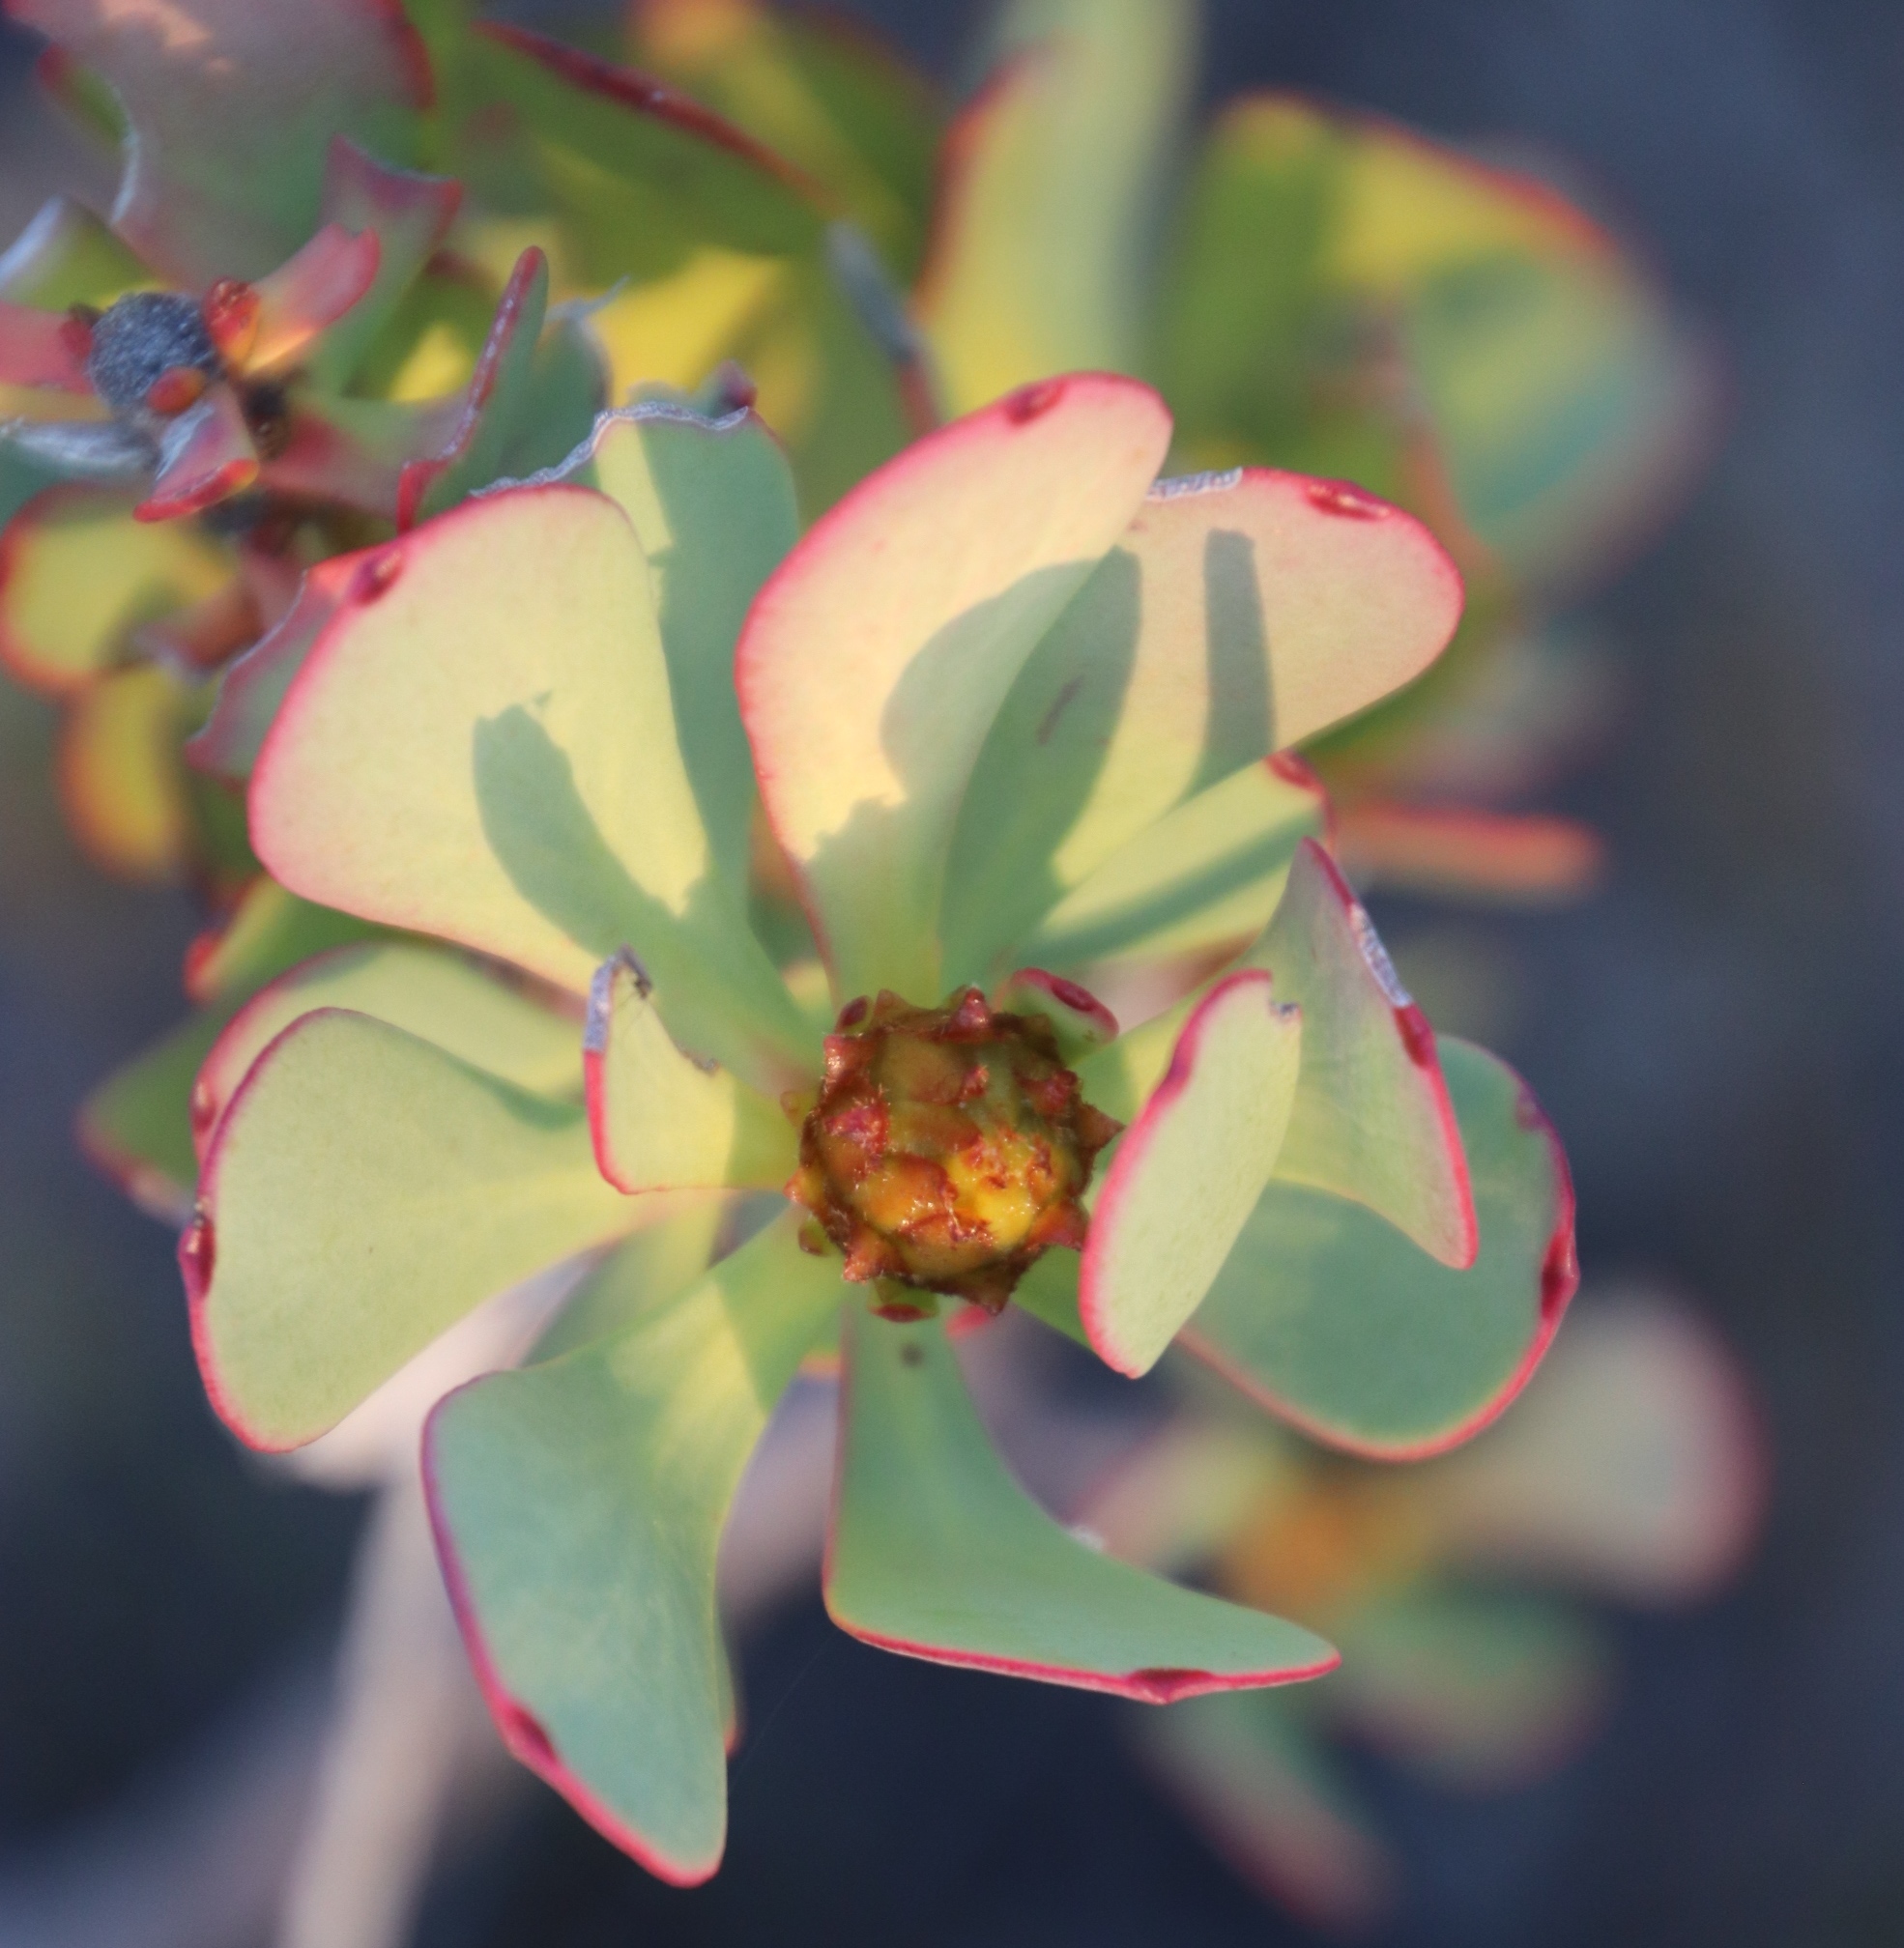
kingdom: Plantae
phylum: Tracheophyta
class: Magnoliopsida
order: Proteales
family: Proteaceae
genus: Leucadendron
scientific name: Leucadendron arcuatum
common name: Red-edge conebush
